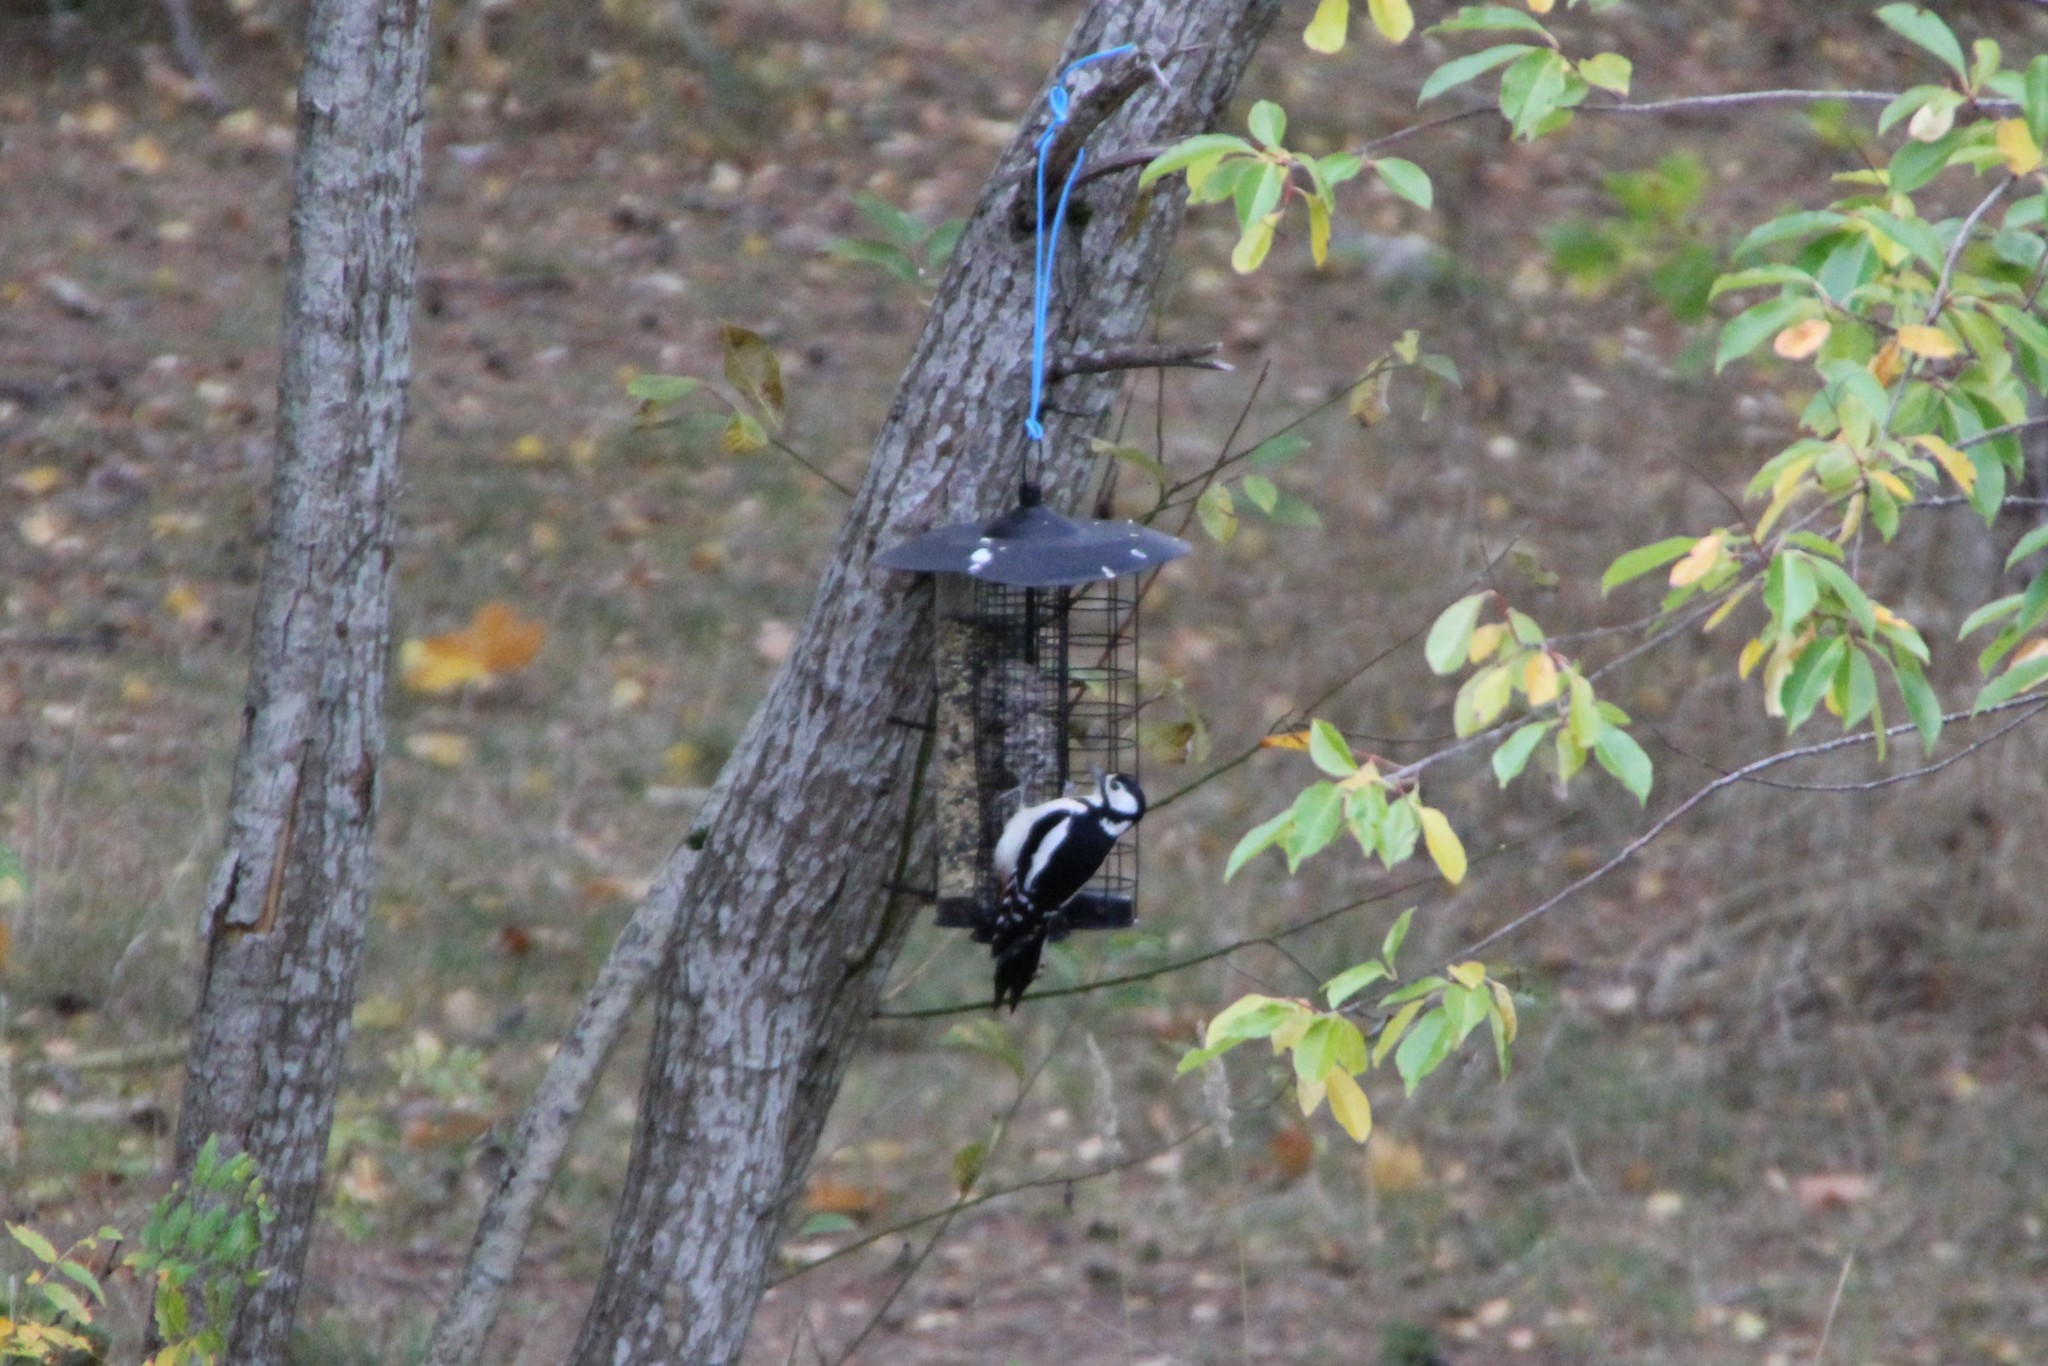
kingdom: Animalia
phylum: Chordata
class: Aves
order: Piciformes
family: Picidae
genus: Dendrocopos
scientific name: Dendrocopos major
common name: Great spotted woodpecker
